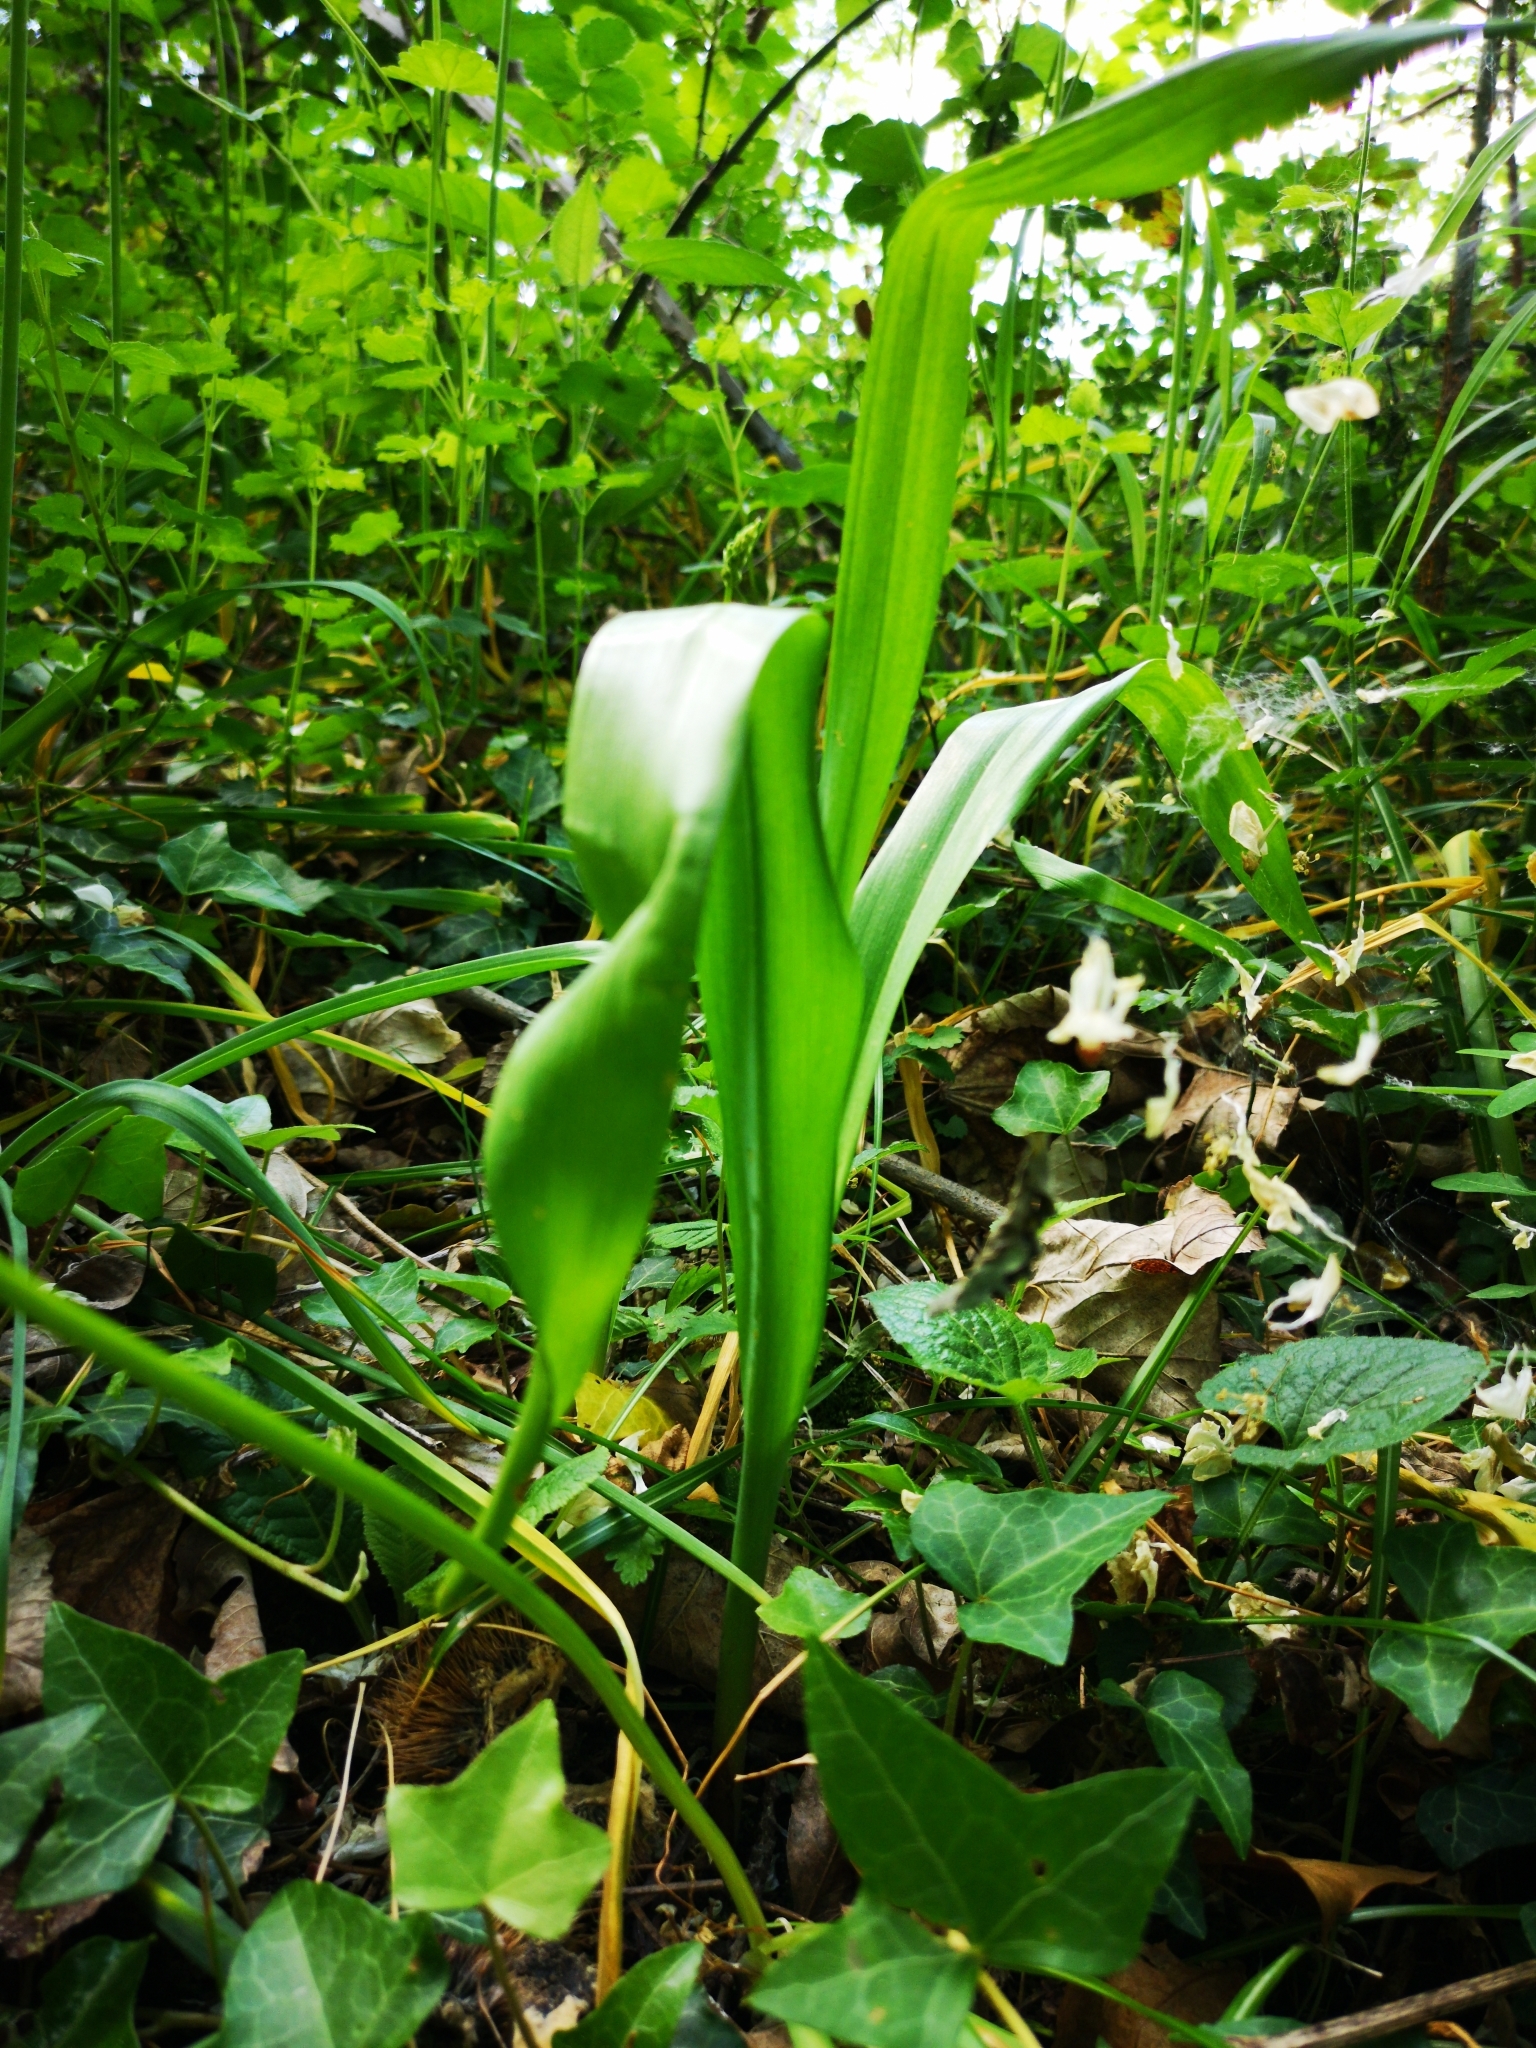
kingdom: Plantae
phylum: Tracheophyta
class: Liliopsida
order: Liliales
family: Colchicaceae
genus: Colchicum
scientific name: Colchicum autumnale
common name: Autumn crocus
